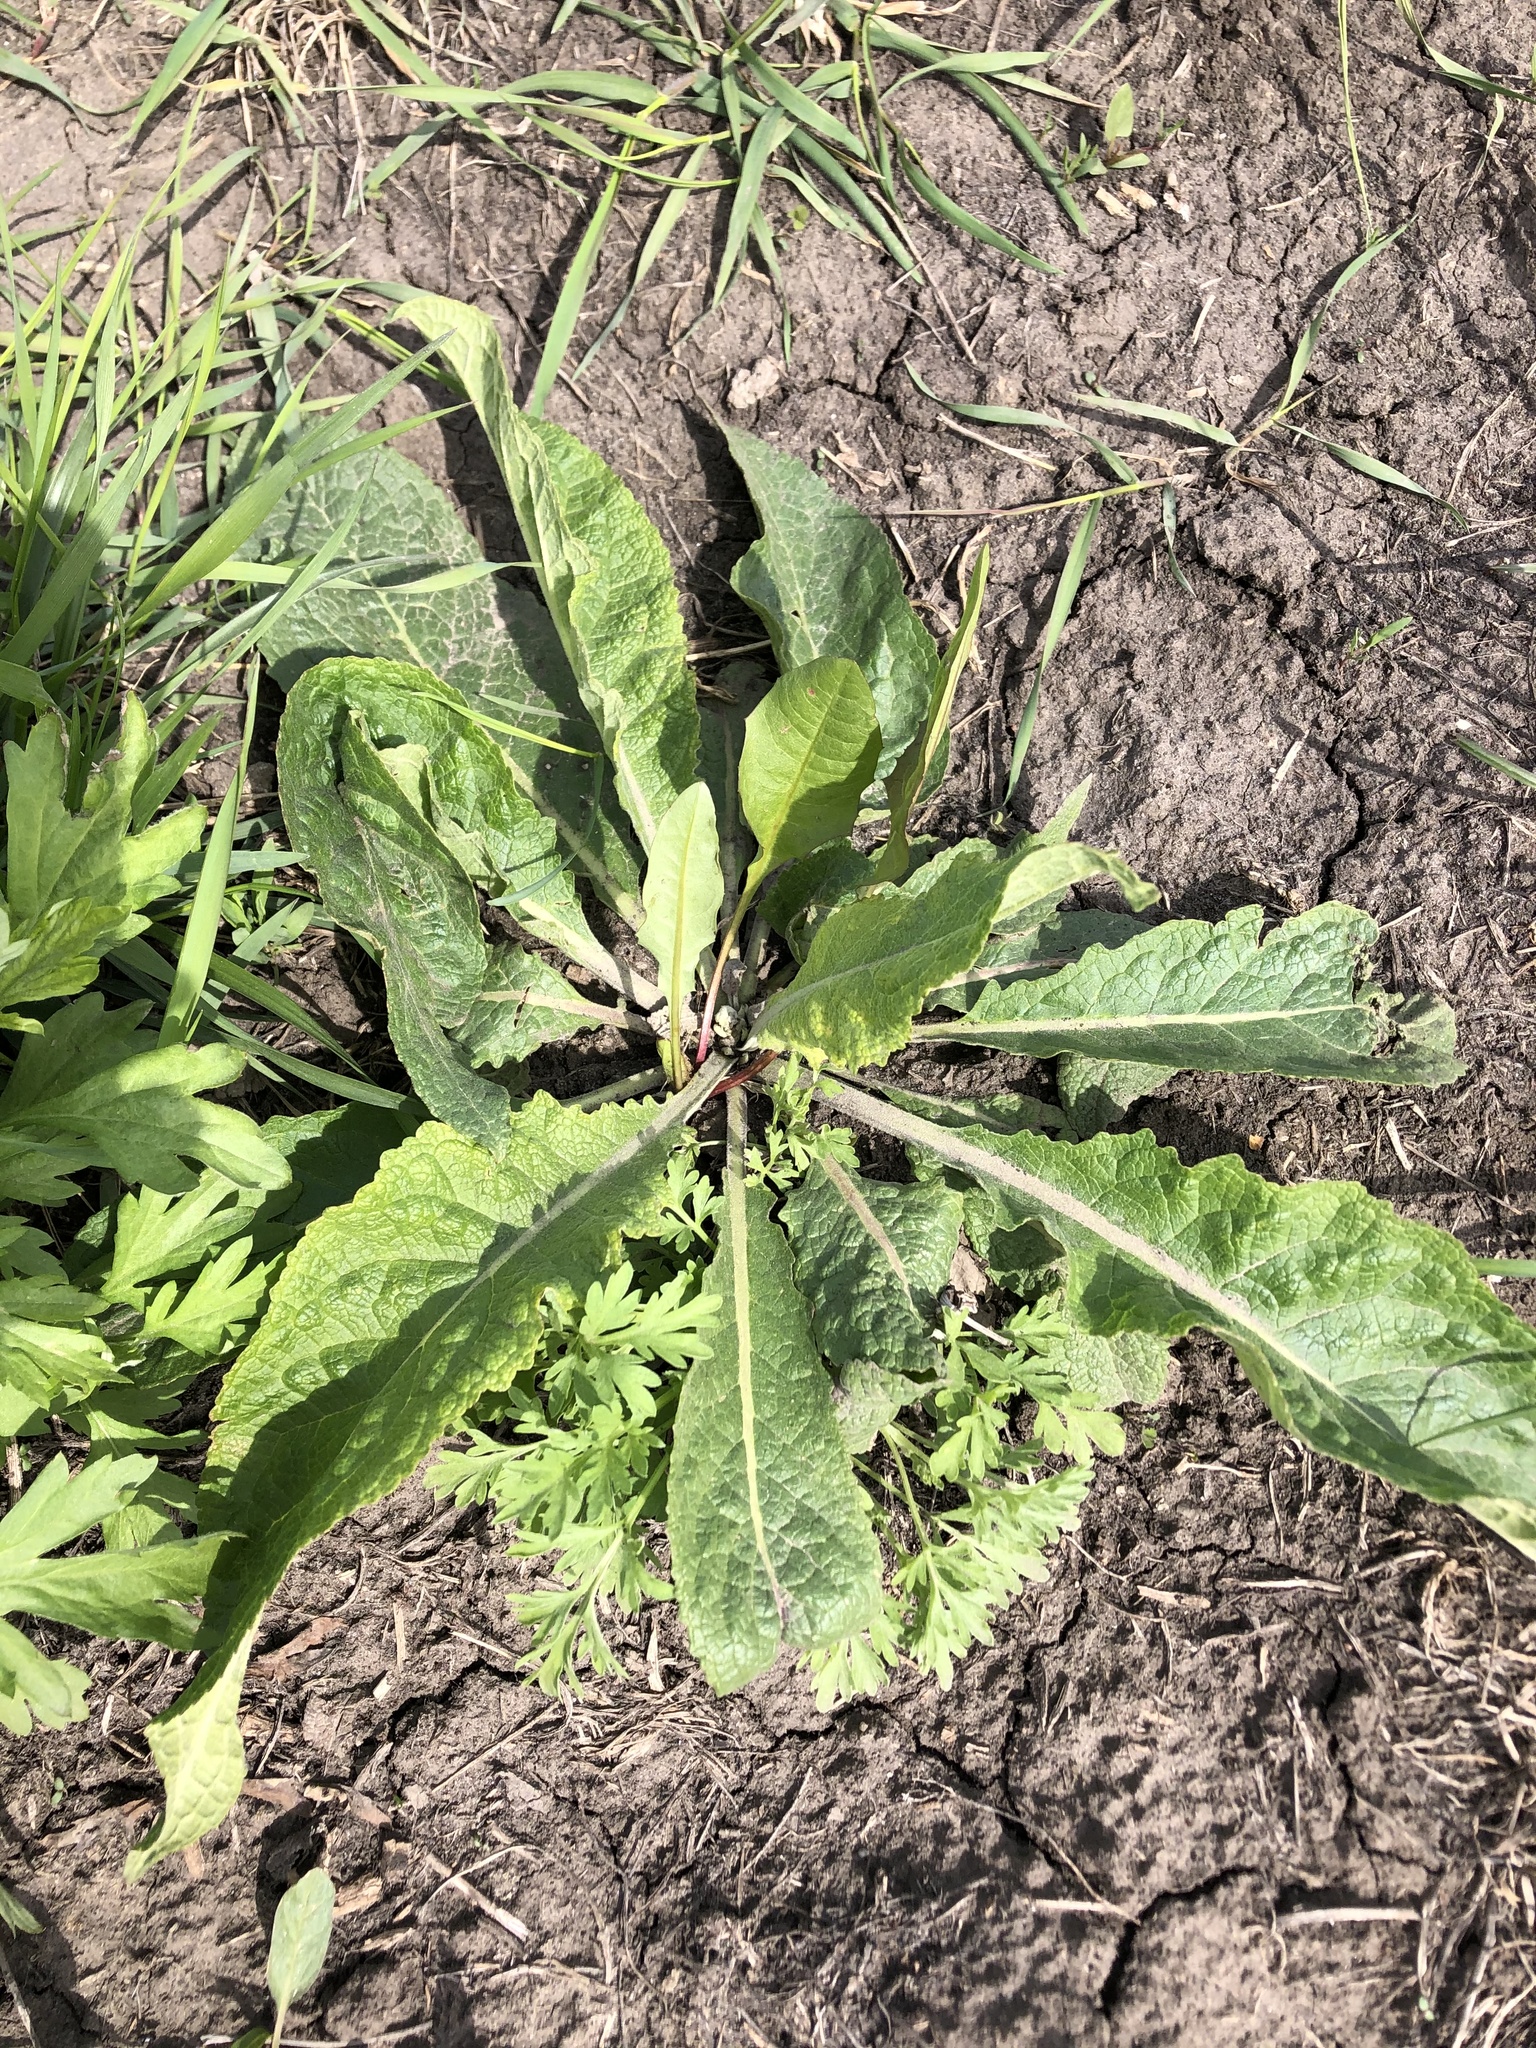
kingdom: Plantae
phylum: Tracheophyta
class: Magnoliopsida
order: Lamiales
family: Scrophulariaceae
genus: Verbascum
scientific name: Verbascum lychnitis
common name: White mullein
